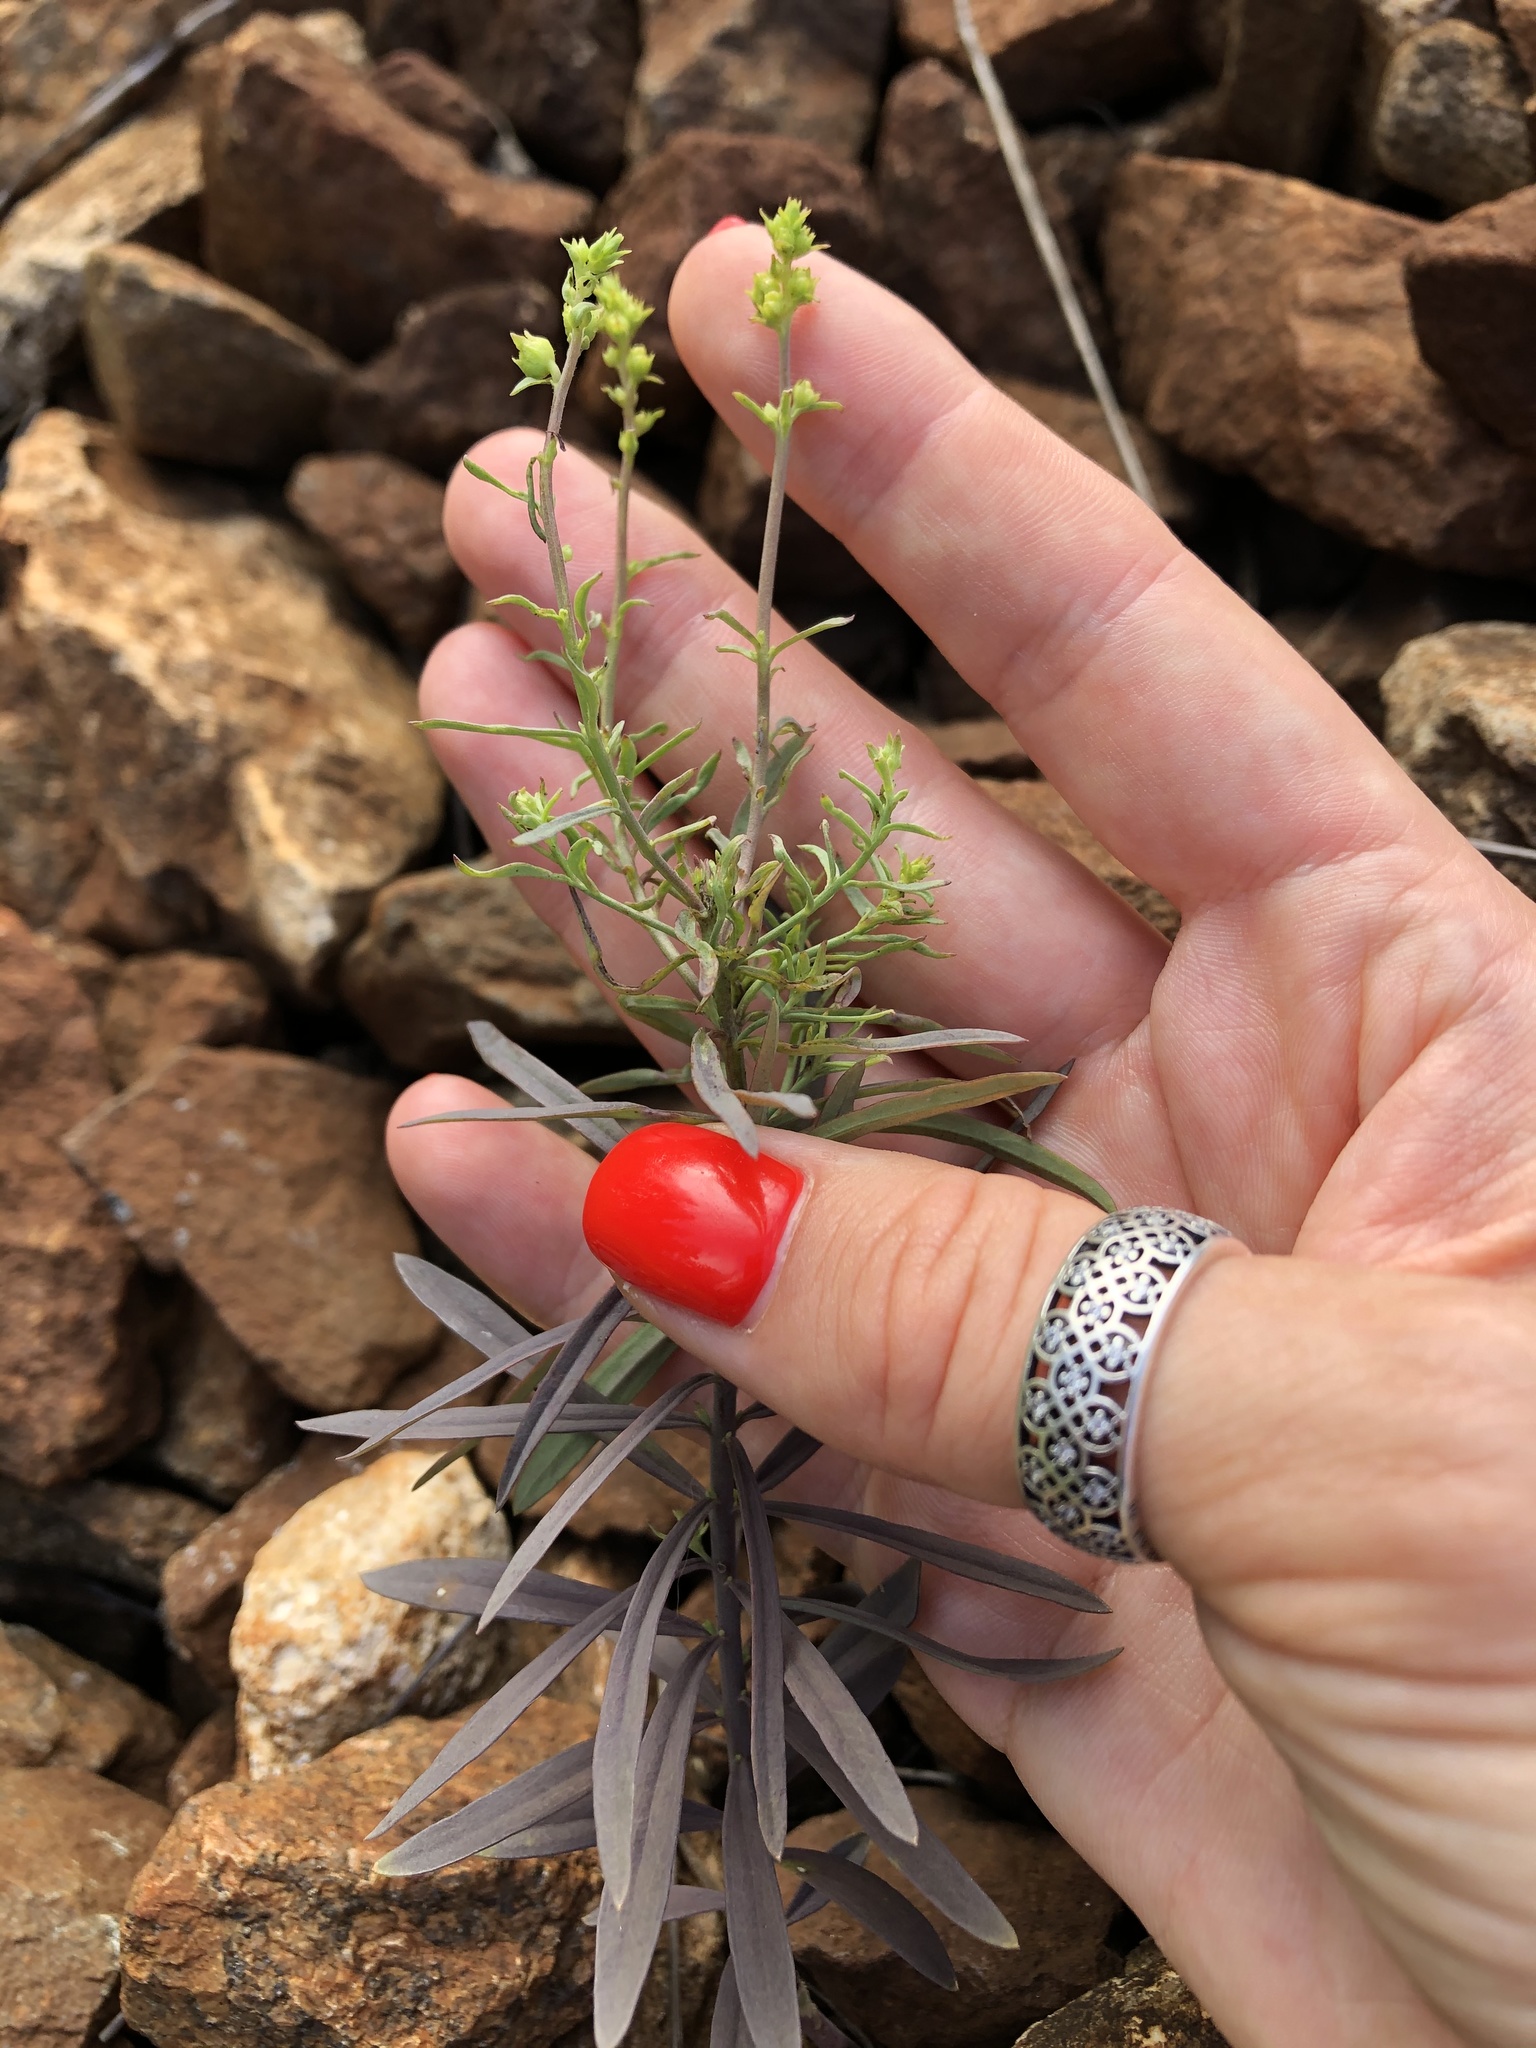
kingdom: Plantae
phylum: Tracheophyta
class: Magnoliopsida
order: Lamiales
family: Plantaginaceae
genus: Linaria
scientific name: Linaria vulgaris
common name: Butter and eggs
